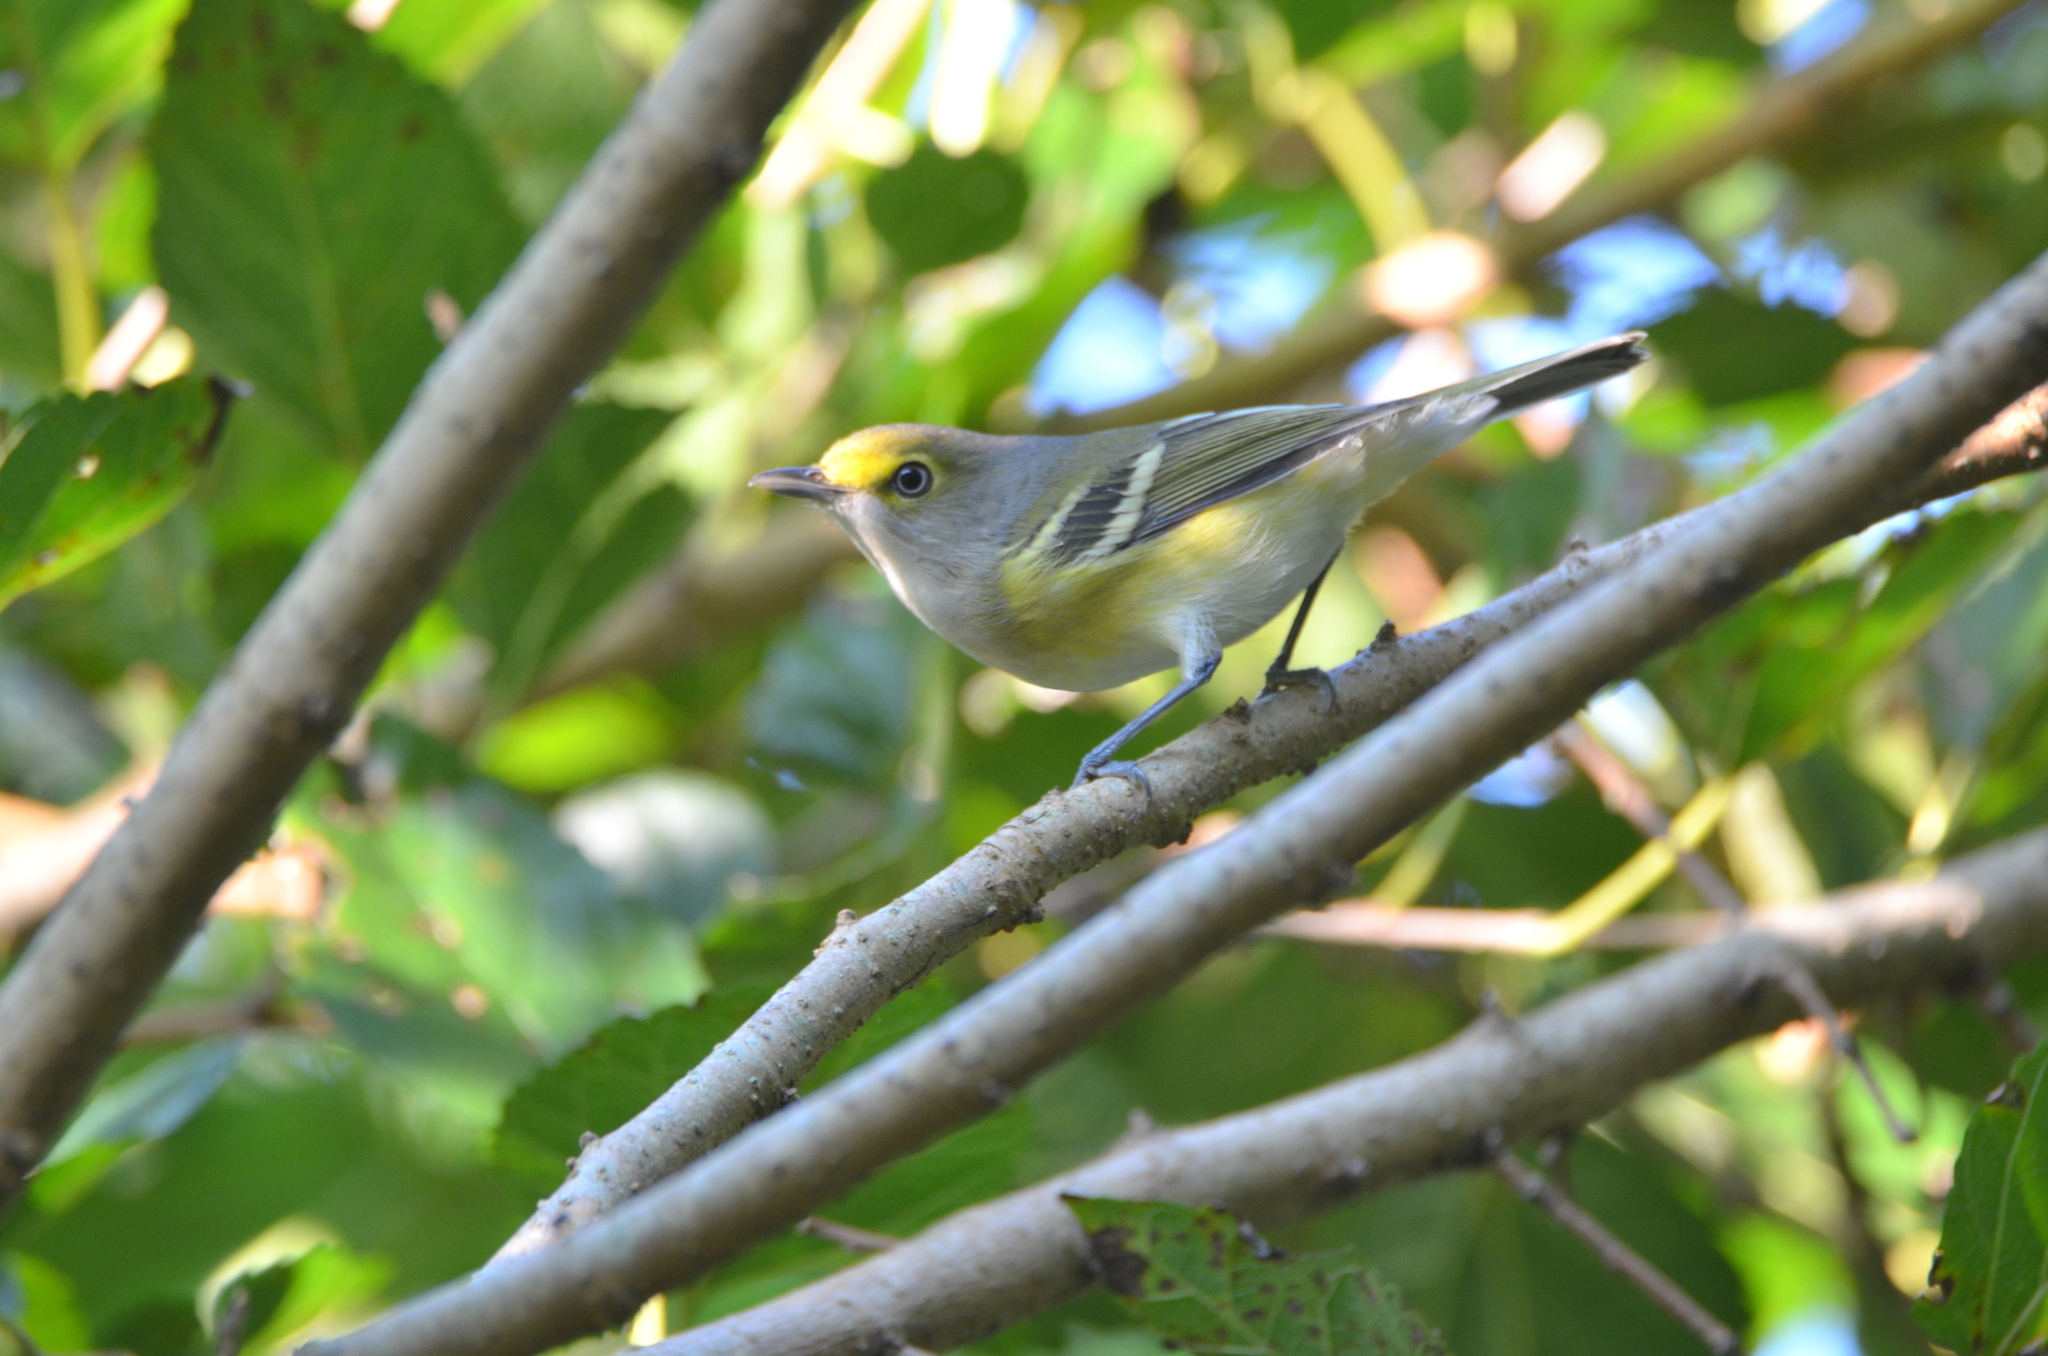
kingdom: Animalia
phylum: Chordata
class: Aves
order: Passeriformes
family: Vireonidae
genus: Vireo
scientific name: Vireo griseus
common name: White-eyed vireo
